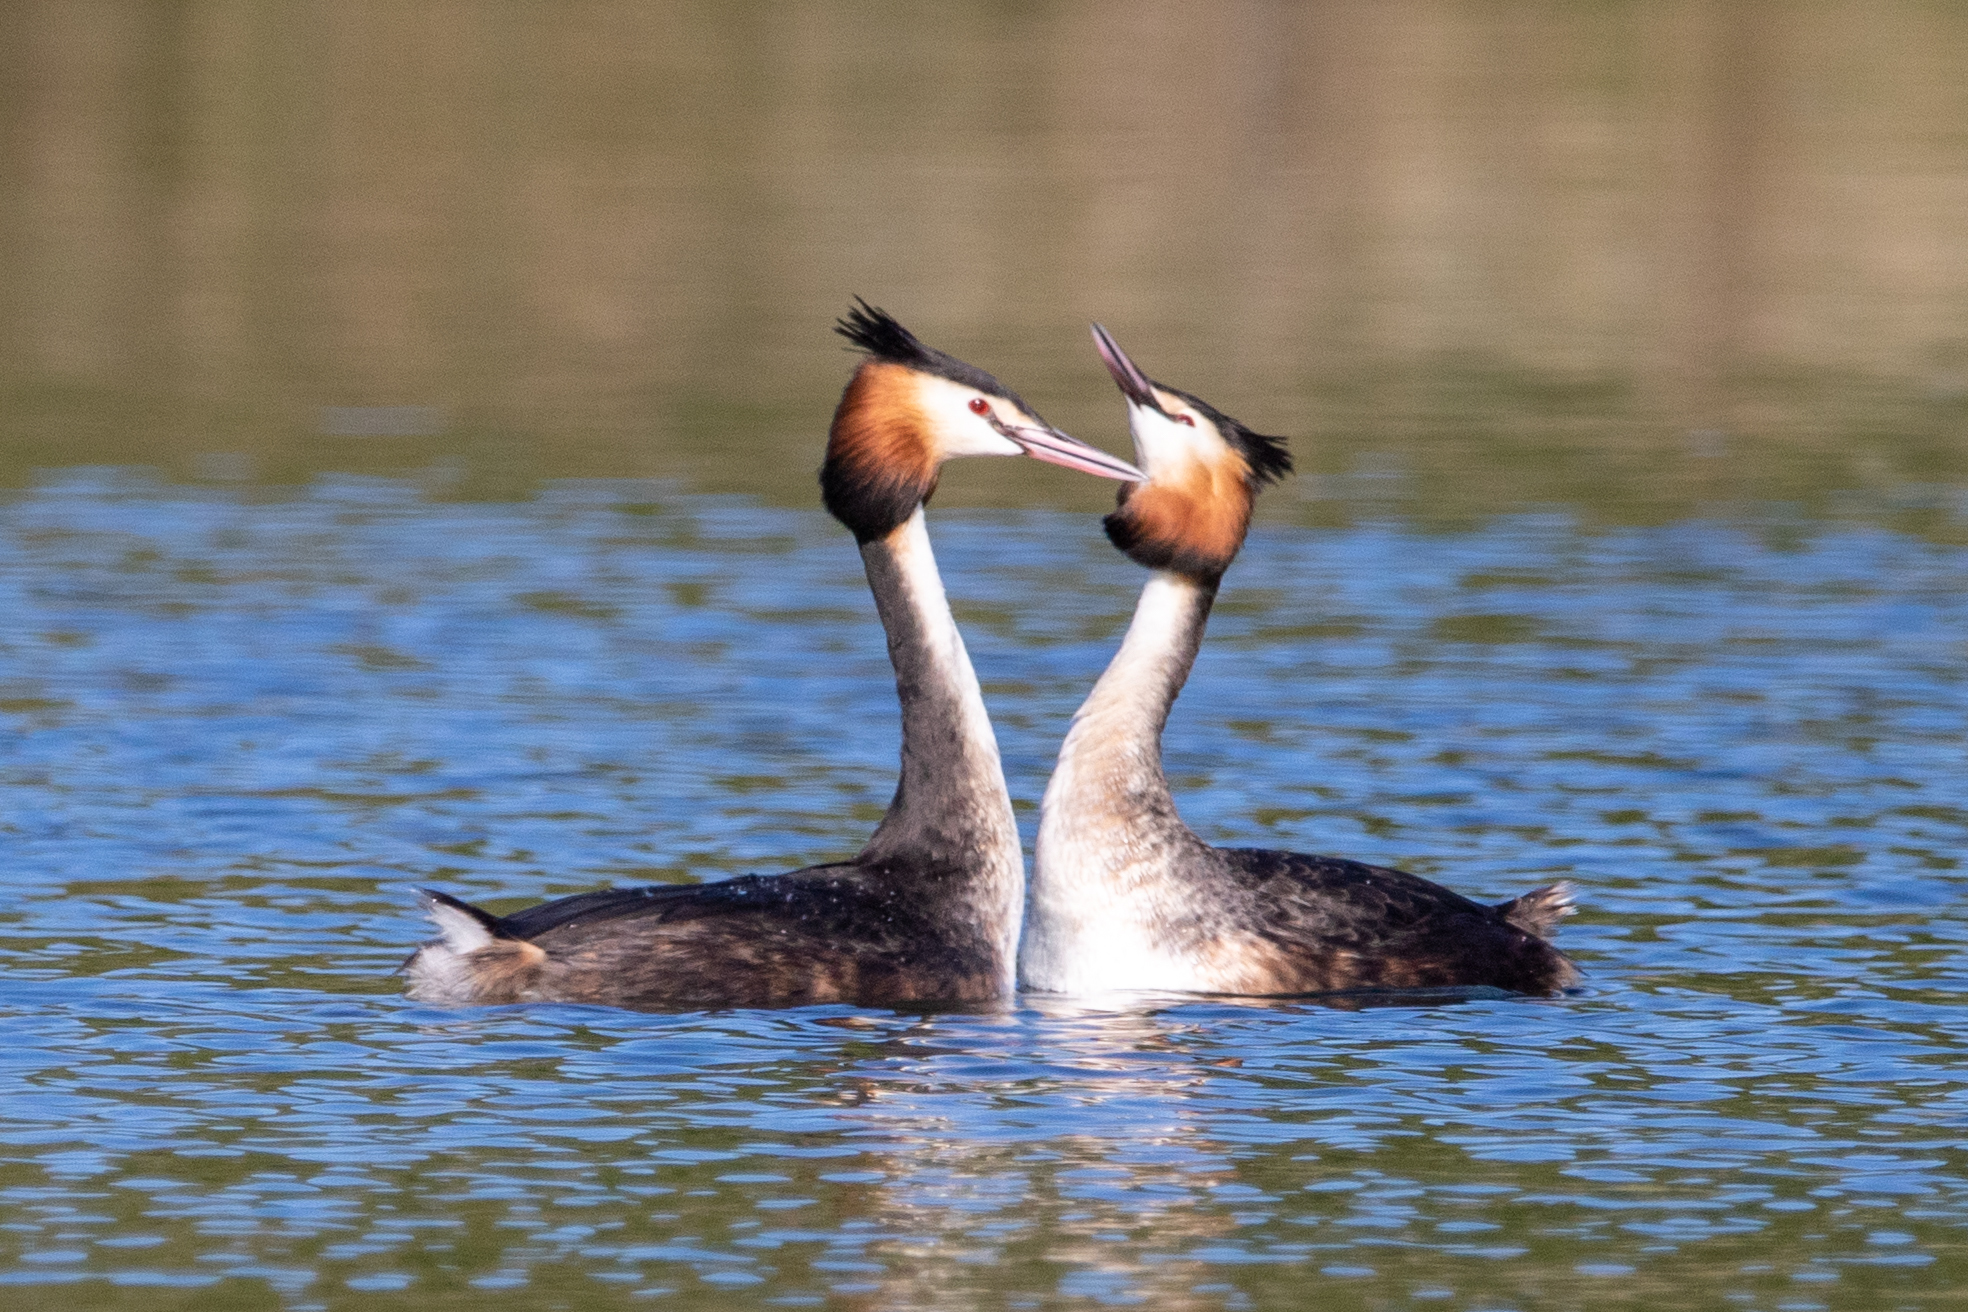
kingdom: Animalia
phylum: Chordata
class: Aves
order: Podicipediformes
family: Podicipedidae
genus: Podiceps
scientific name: Podiceps cristatus
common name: Great crested grebe
